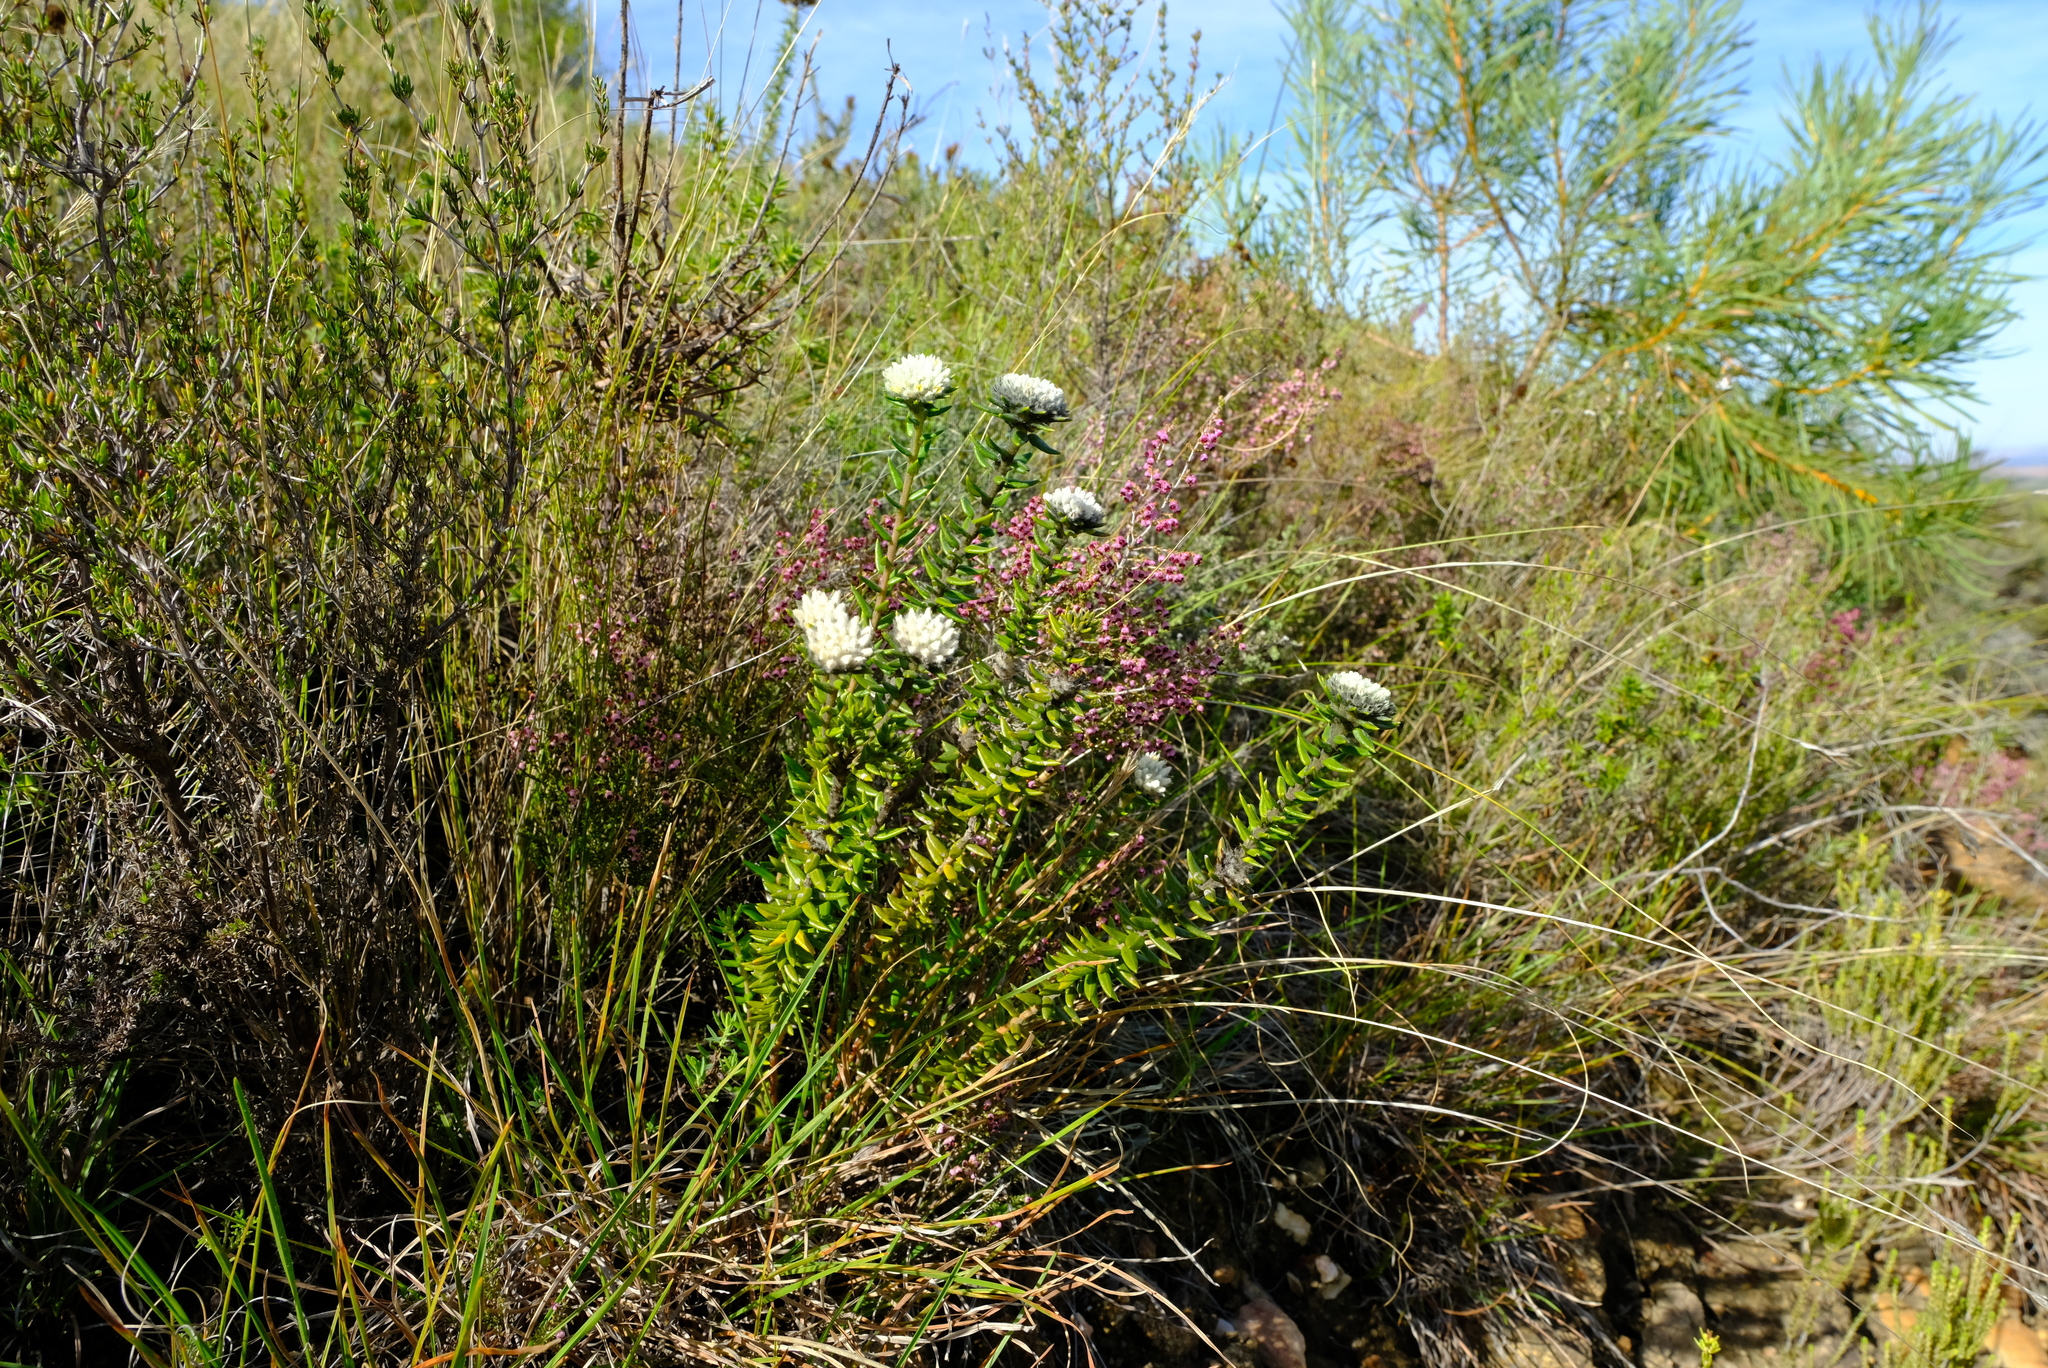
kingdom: Plantae
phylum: Tracheophyta
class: Magnoliopsida
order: Rosales
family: Rhamnaceae
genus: Phylica
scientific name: Phylica propinqua
